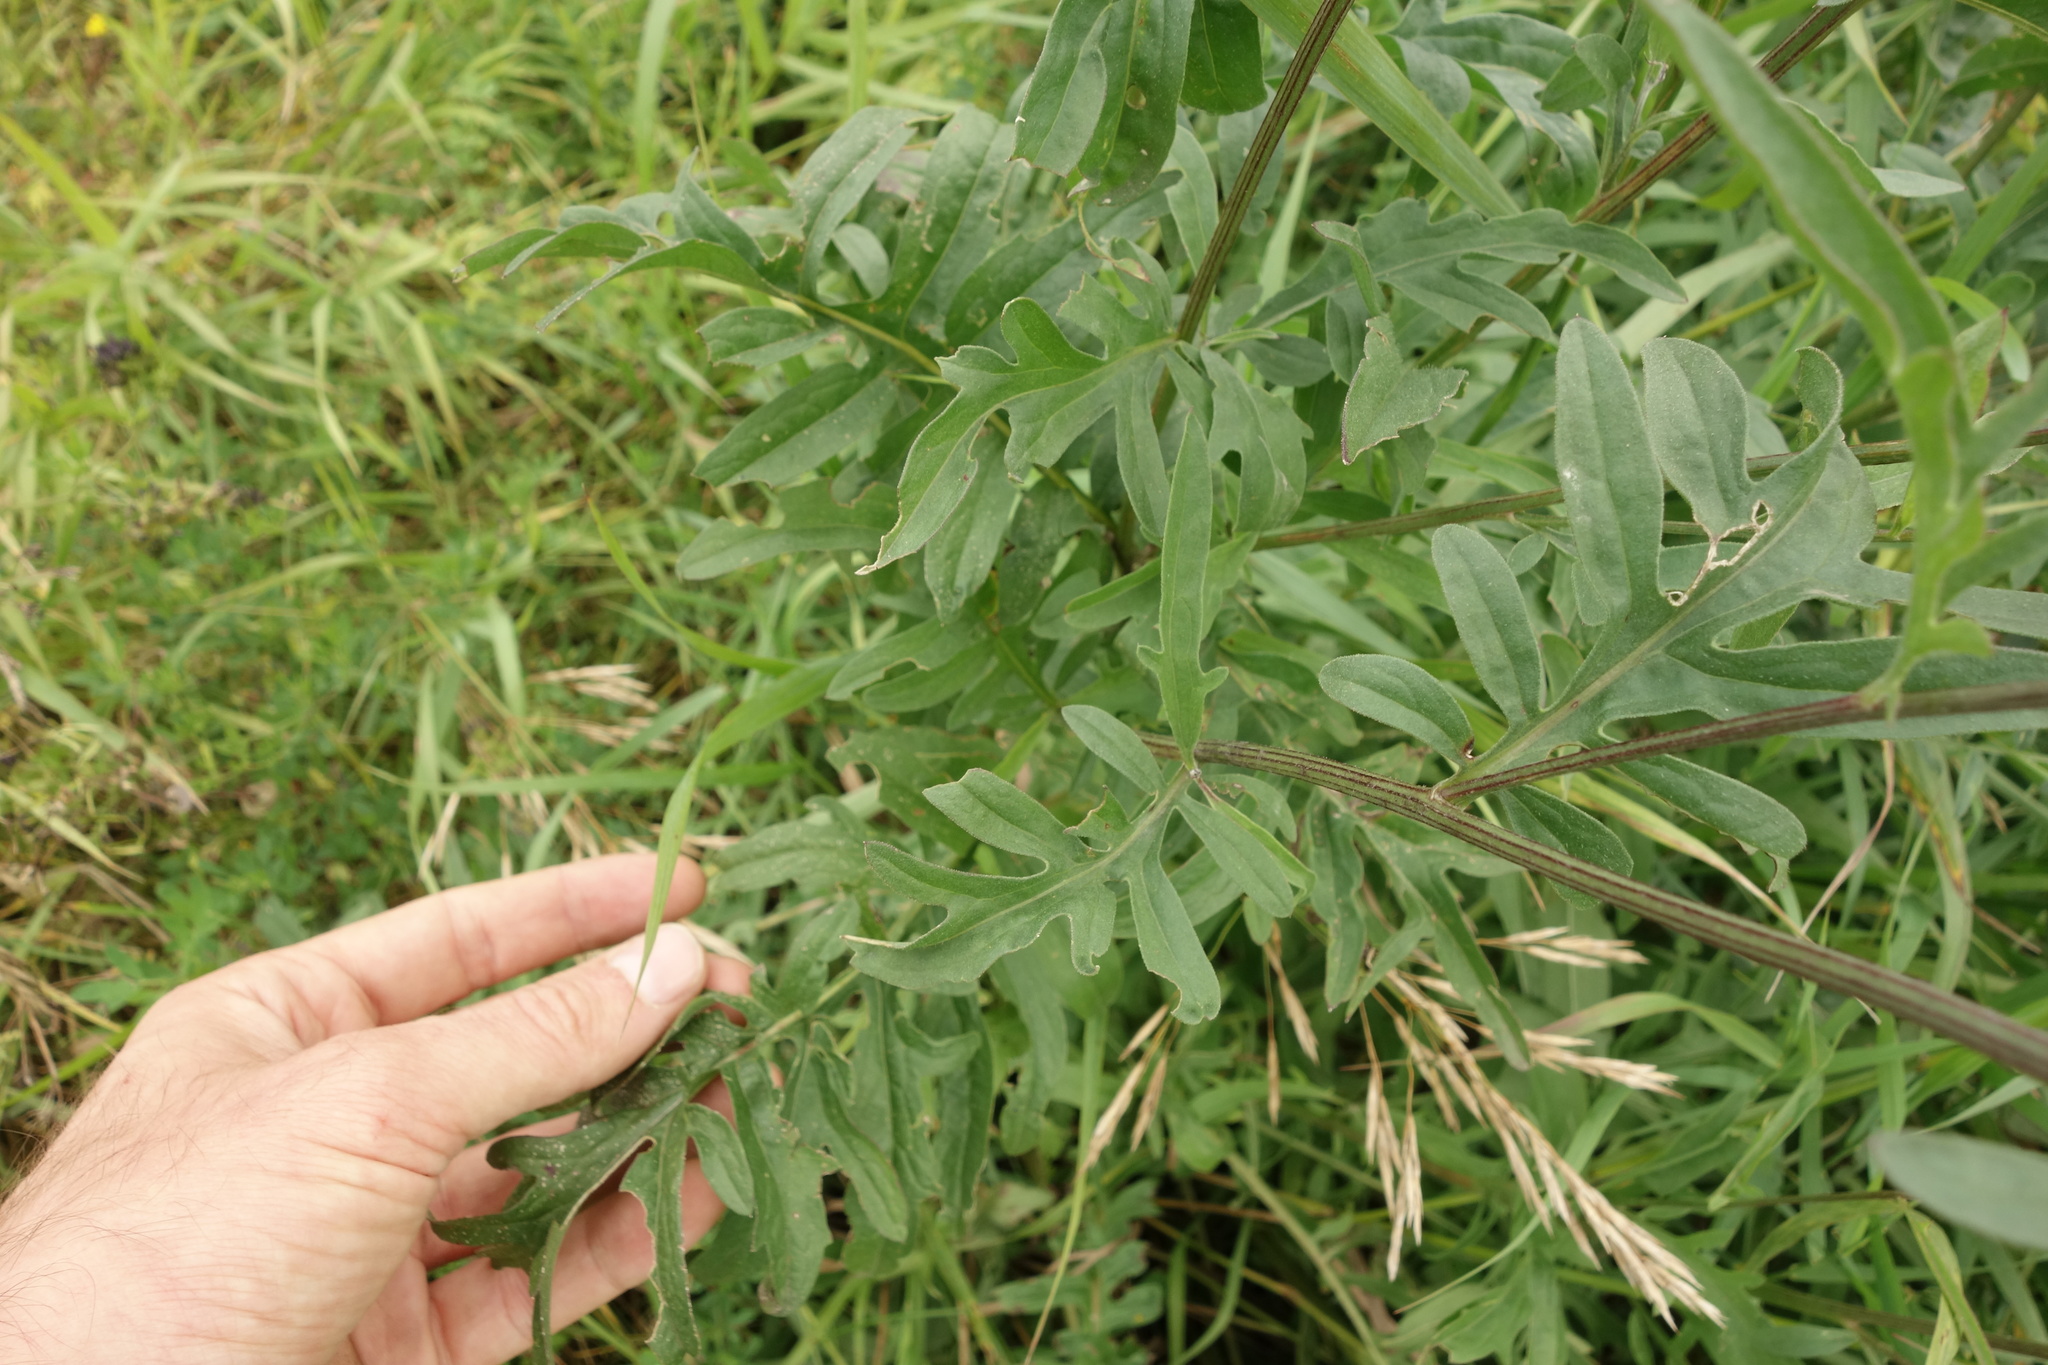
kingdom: Plantae
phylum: Tracheophyta
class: Magnoliopsida
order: Asterales
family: Asteraceae
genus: Centaurea
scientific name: Centaurea scabiosa
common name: Greater knapweed
